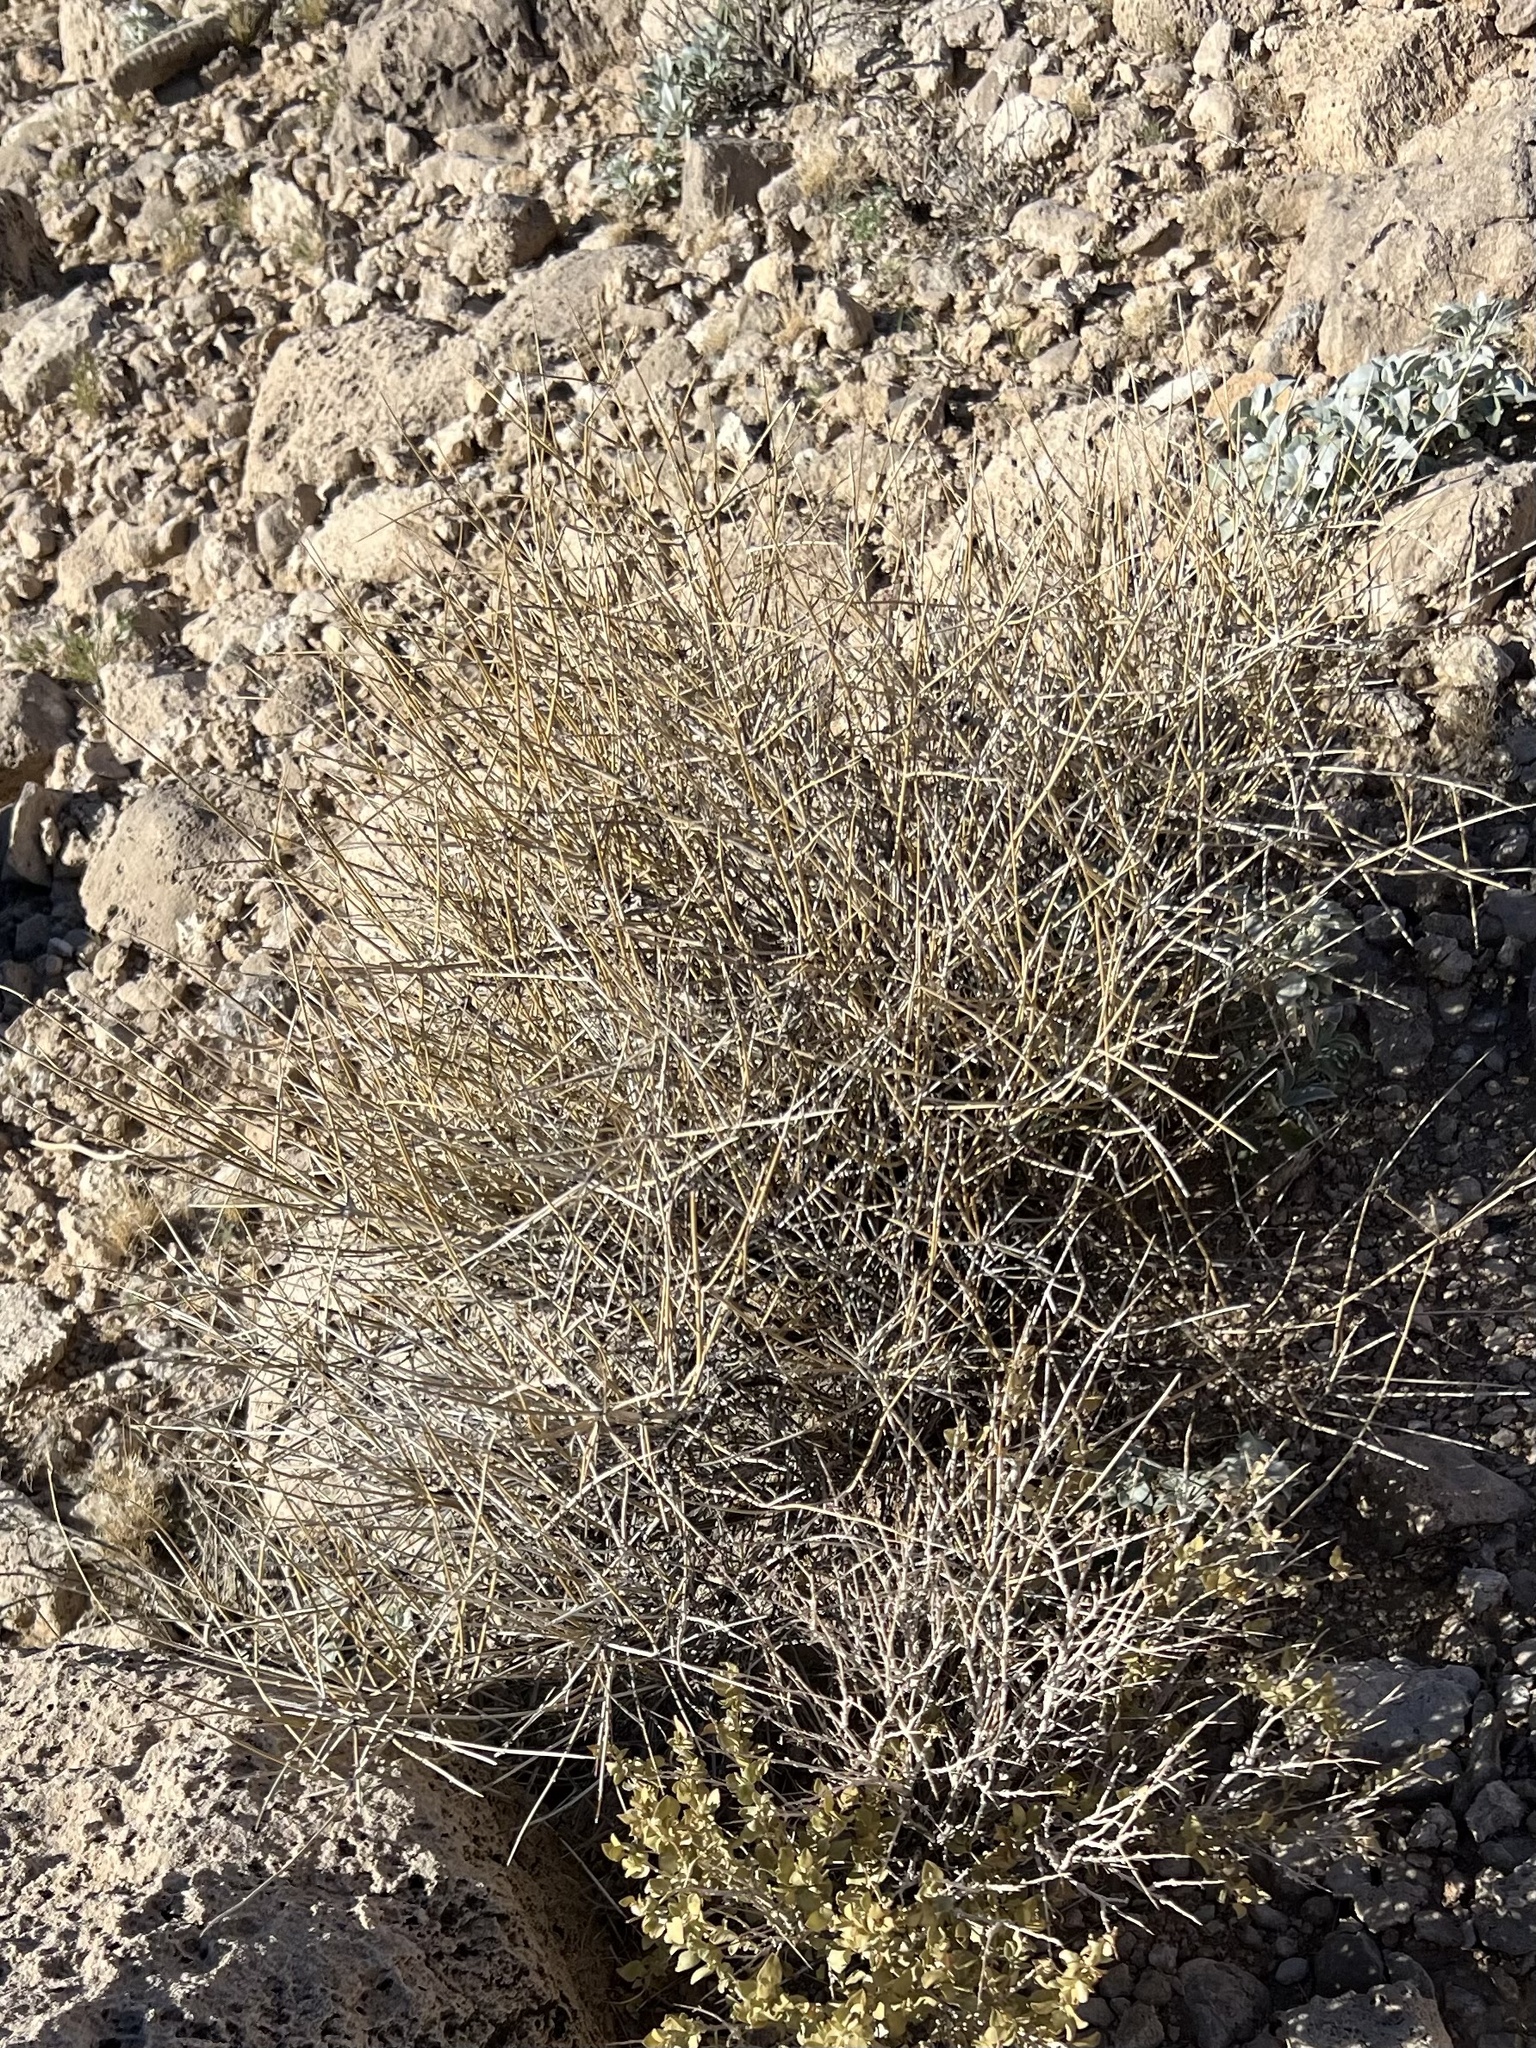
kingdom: Plantae
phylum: Tracheophyta
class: Gnetopsida
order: Ephedrales
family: Ephedraceae
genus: Ephedra
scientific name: Ephedra nevadensis
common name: Gray ephedra
